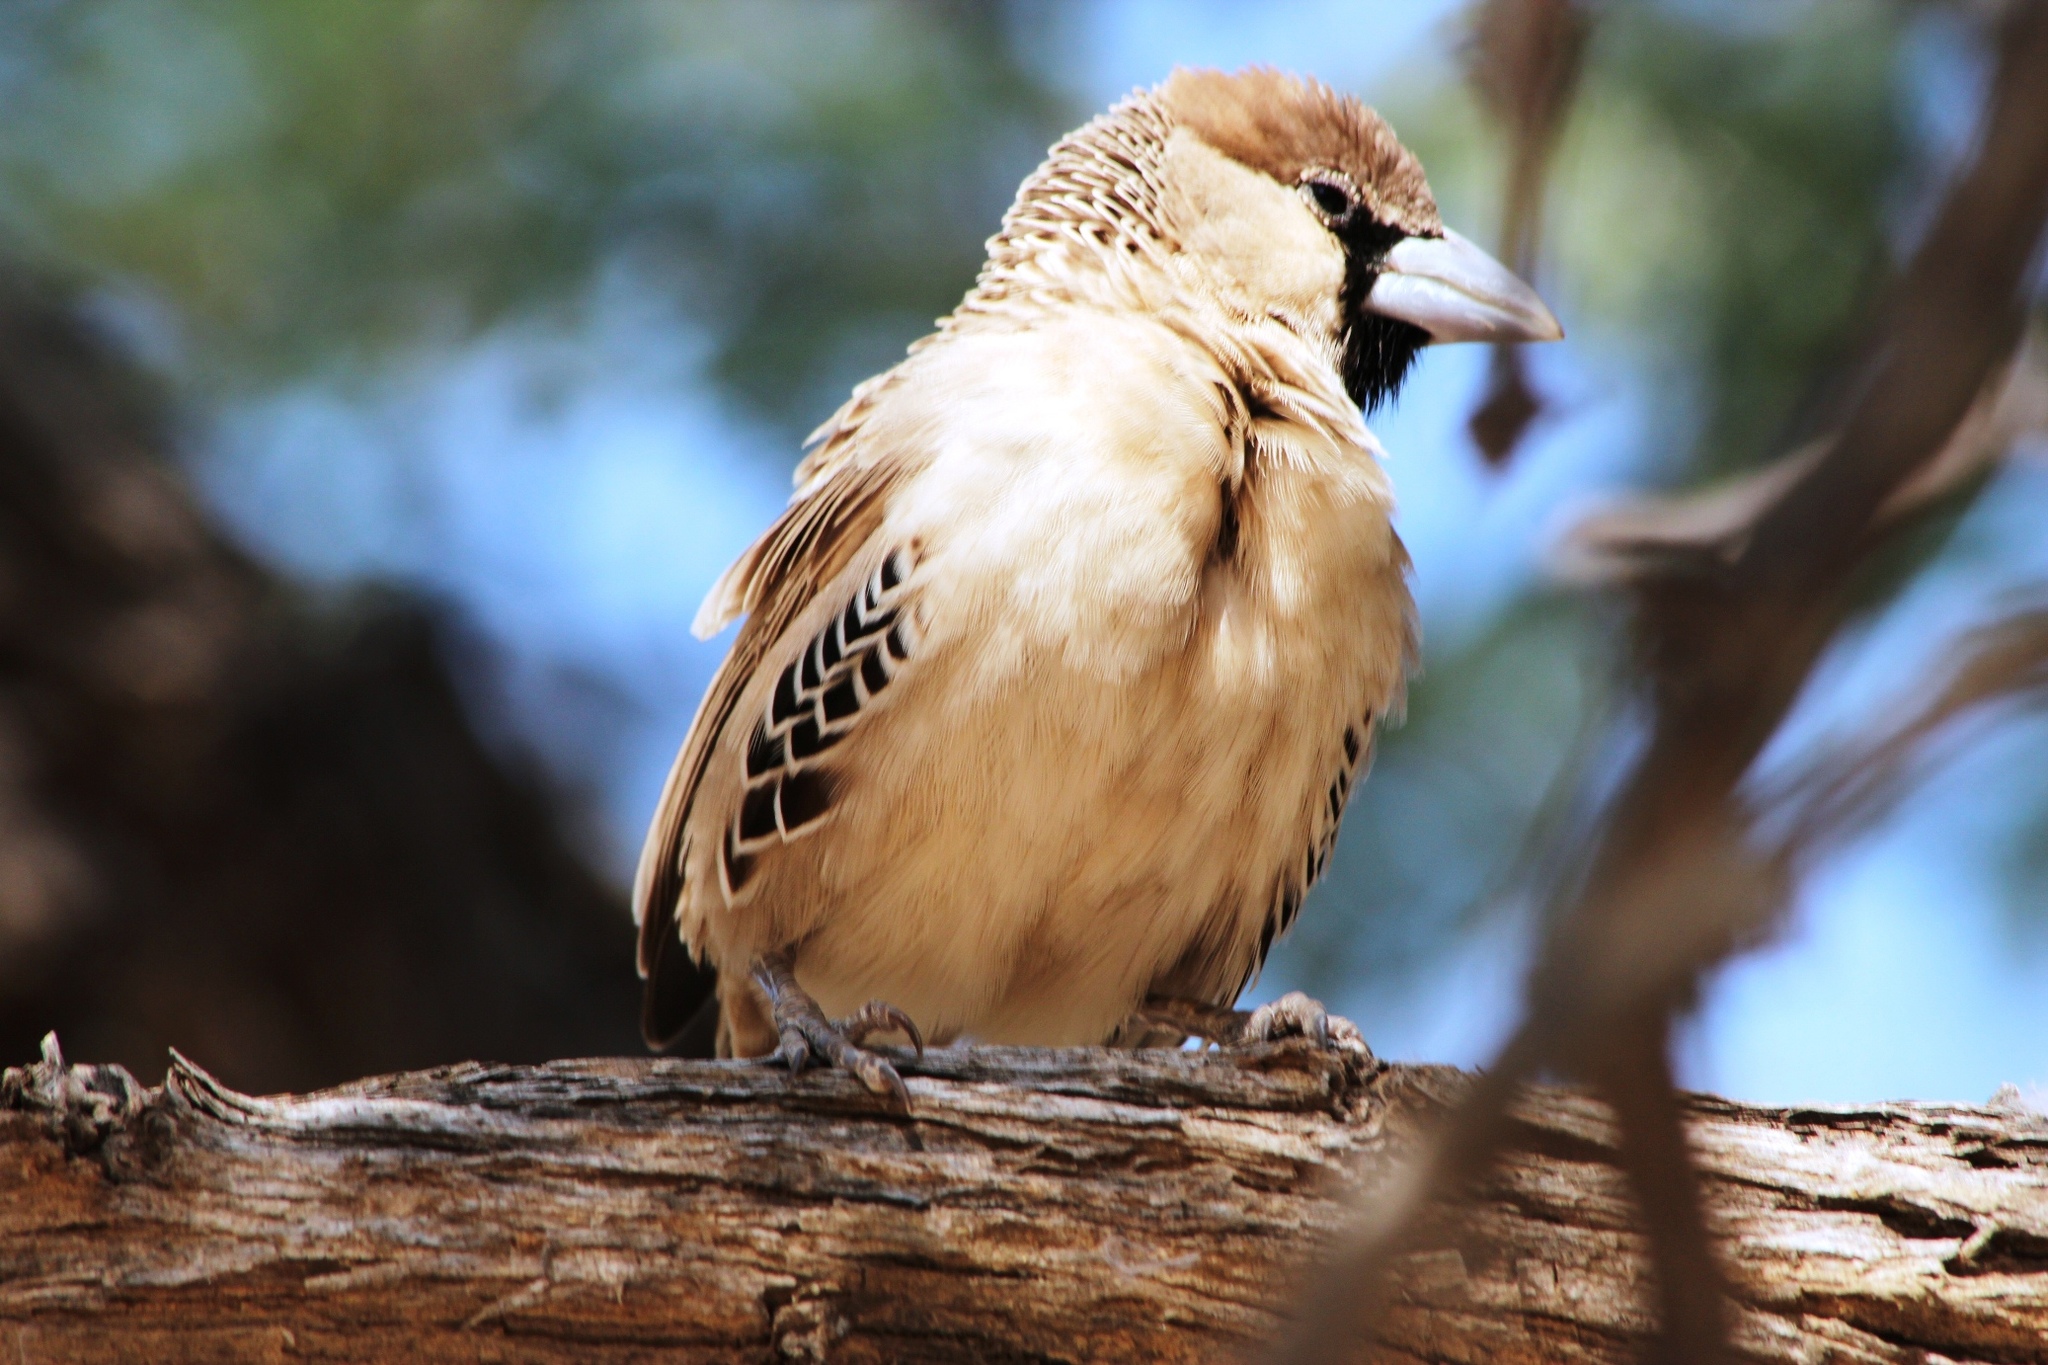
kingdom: Animalia
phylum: Chordata
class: Aves
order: Passeriformes
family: Passeridae
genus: Philetairus
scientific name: Philetairus socius
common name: Sociable weaver
